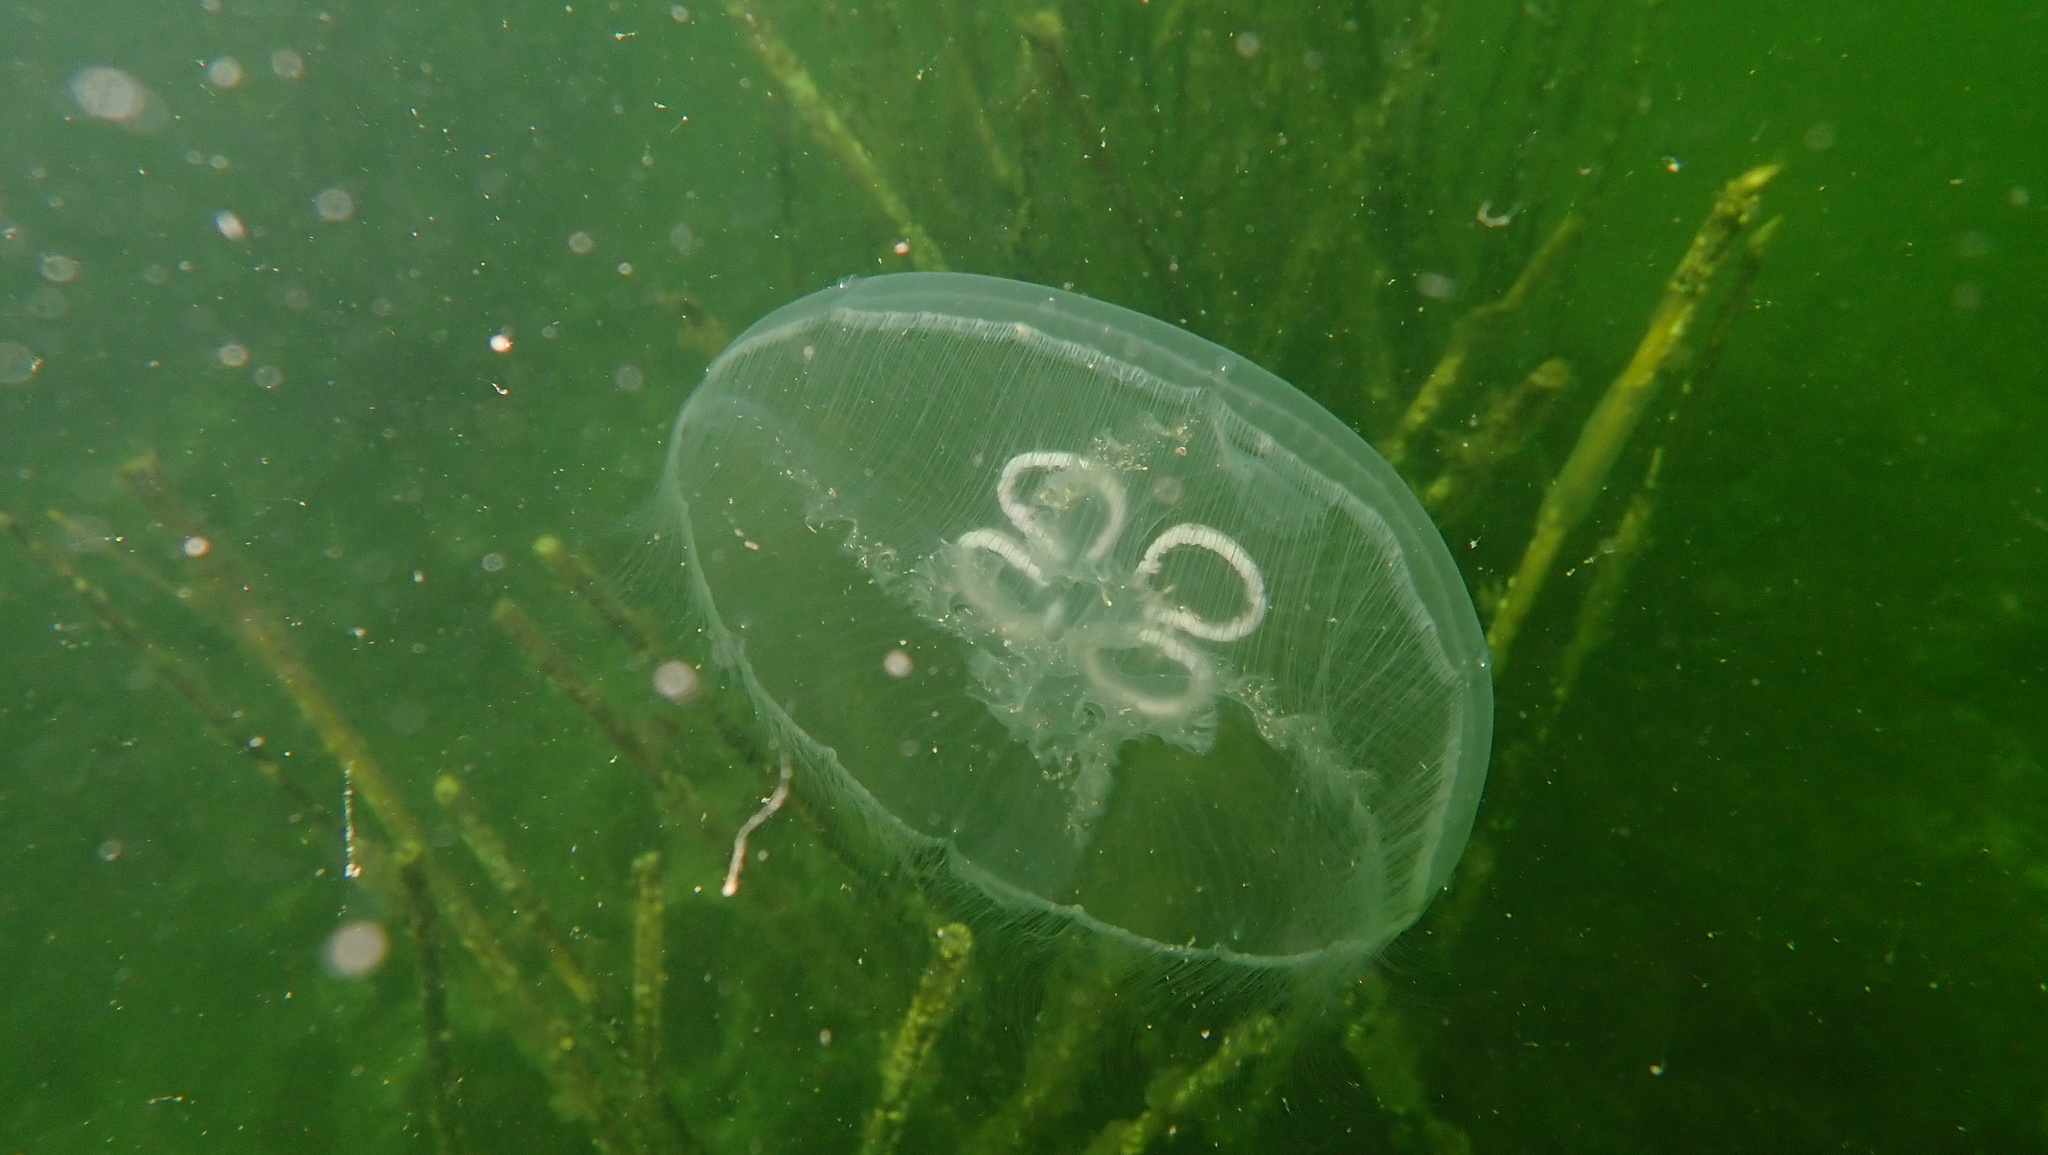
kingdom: Animalia
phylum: Cnidaria
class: Scyphozoa
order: Semaeostomeae
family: Ulmaridae
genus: Aurelia
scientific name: Aurelia aurita
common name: Moon jellyfish
